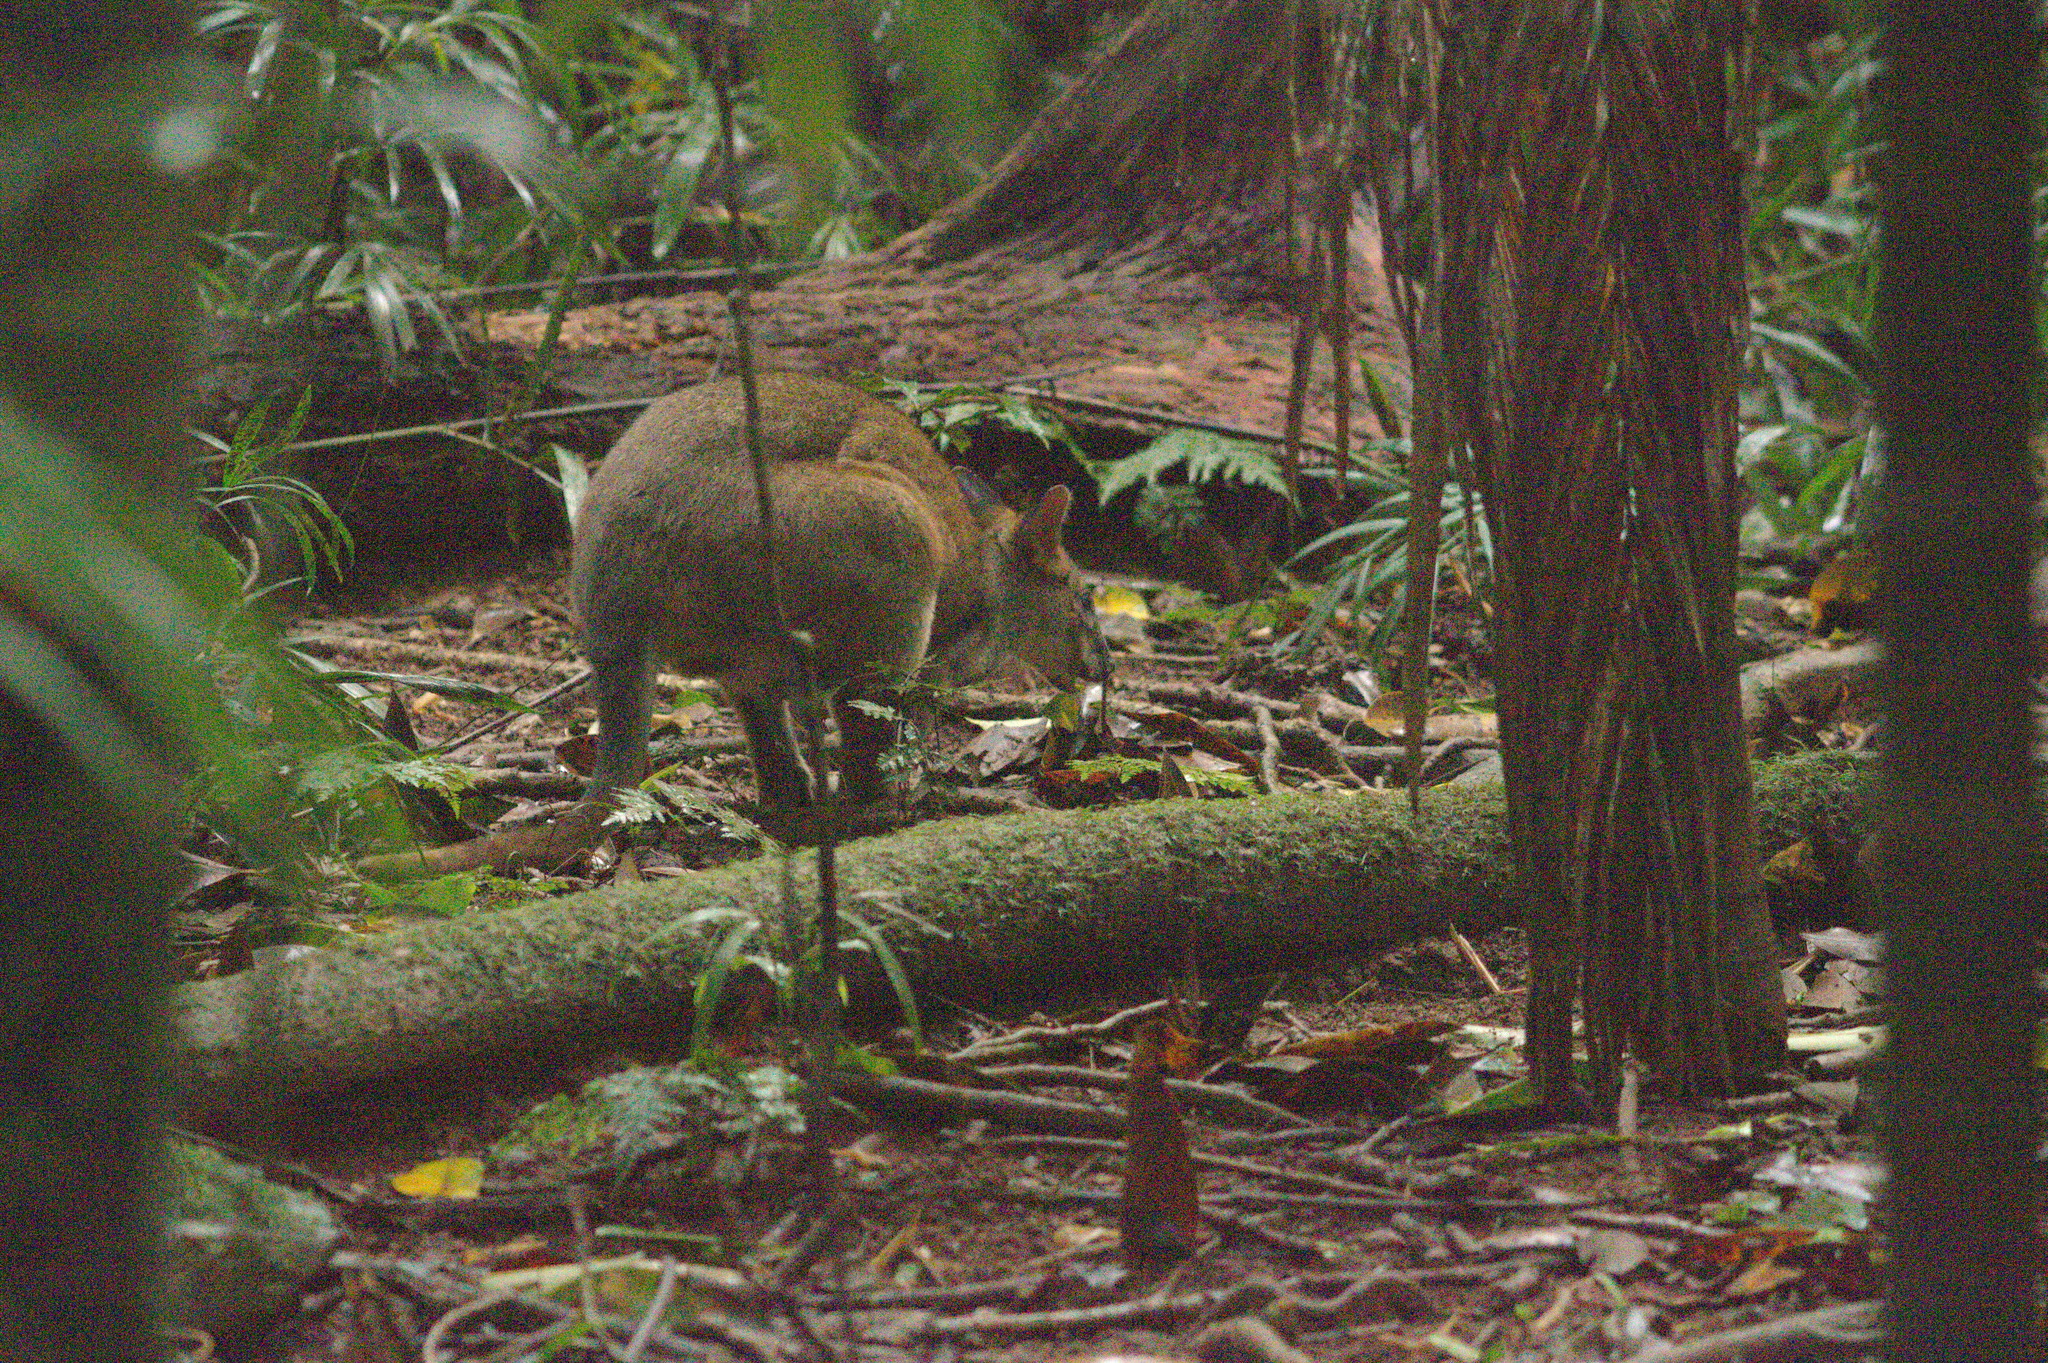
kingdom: Animalia
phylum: Chordata
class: Mammalia
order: Diprotodontia
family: Macropodidae
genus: Thylogale
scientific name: Thylogale stigmatica
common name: Red-legged pademelon
